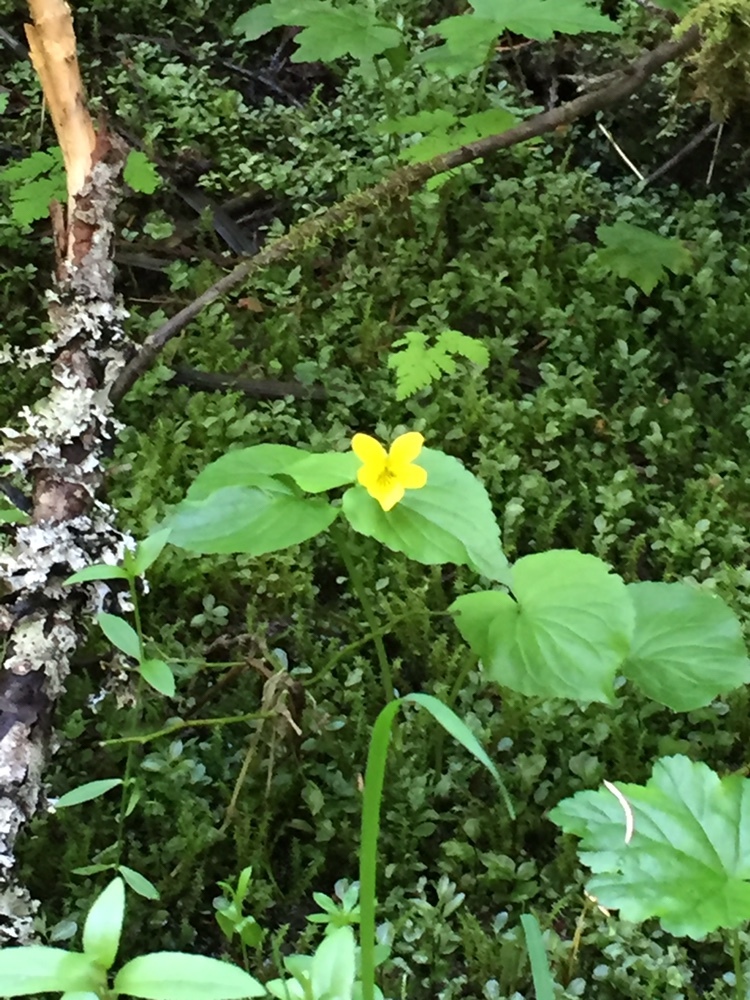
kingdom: Plantae
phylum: Tracheophyta
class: Magnoliopsida
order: Malpighiales
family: Violaceae
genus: Viola
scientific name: Viola glabella
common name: Stream violet
